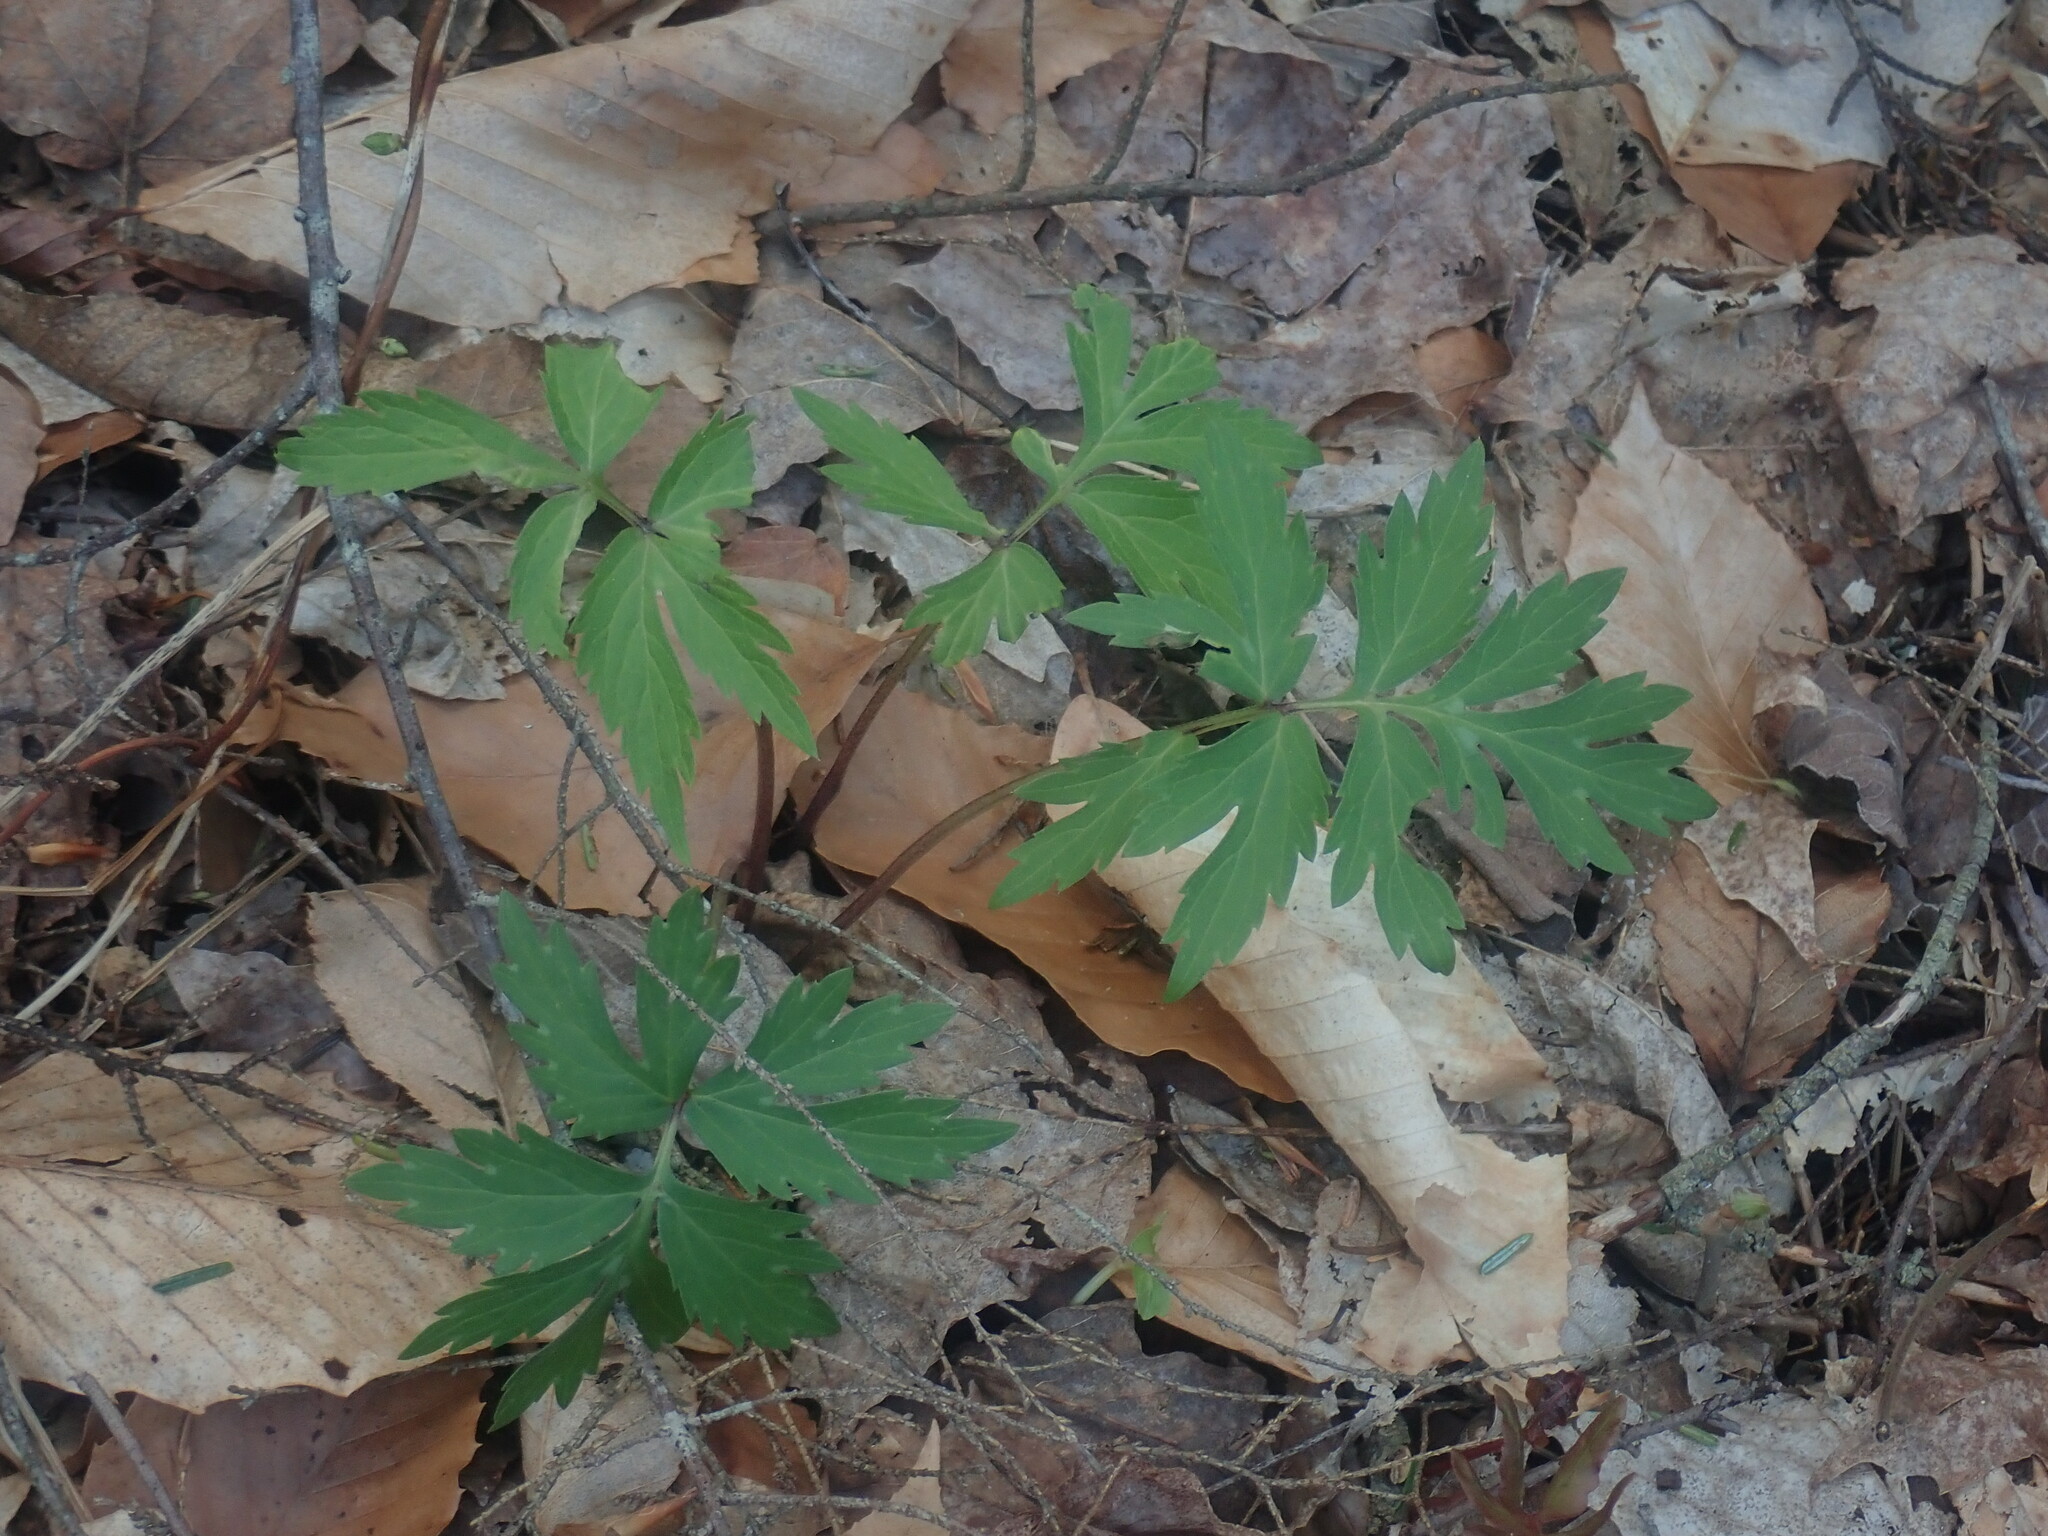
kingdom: Plantae
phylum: Tracheophyta
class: Magnoliopsida
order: Boraginales
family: Hydrophyllaceae
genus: Hydrophyllum
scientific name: Hydrophyllum virginianum
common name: Virginia waterleaf
